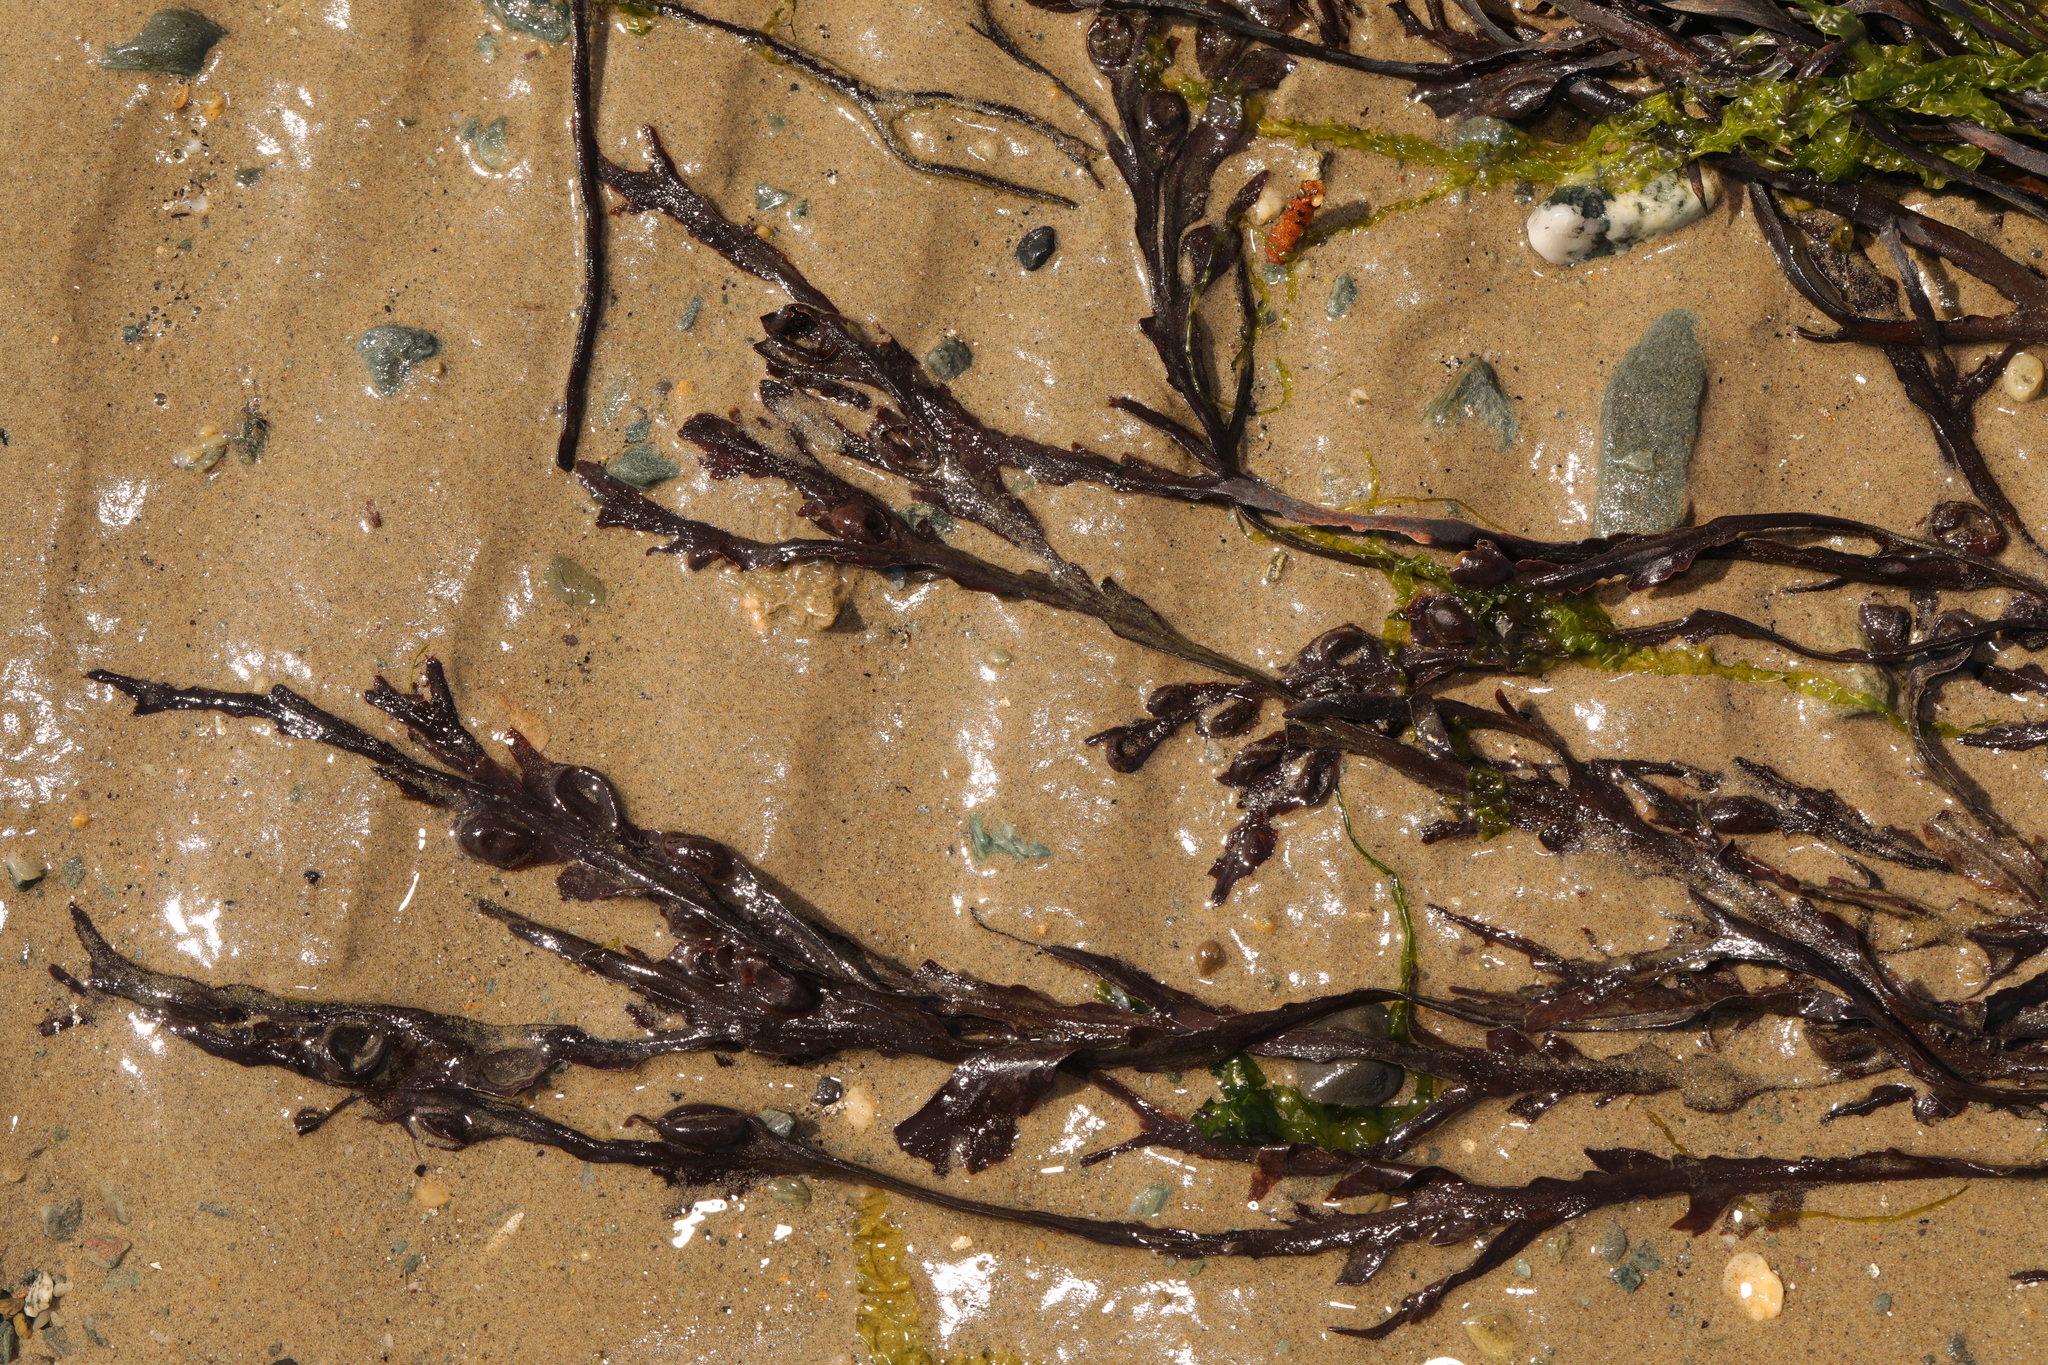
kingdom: Chromista
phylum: Ochrophyta
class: Phaeophyceae
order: Fucales
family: Fucaceae
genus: Fucus
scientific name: Fucus vesiculosus
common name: Bladder wrack
